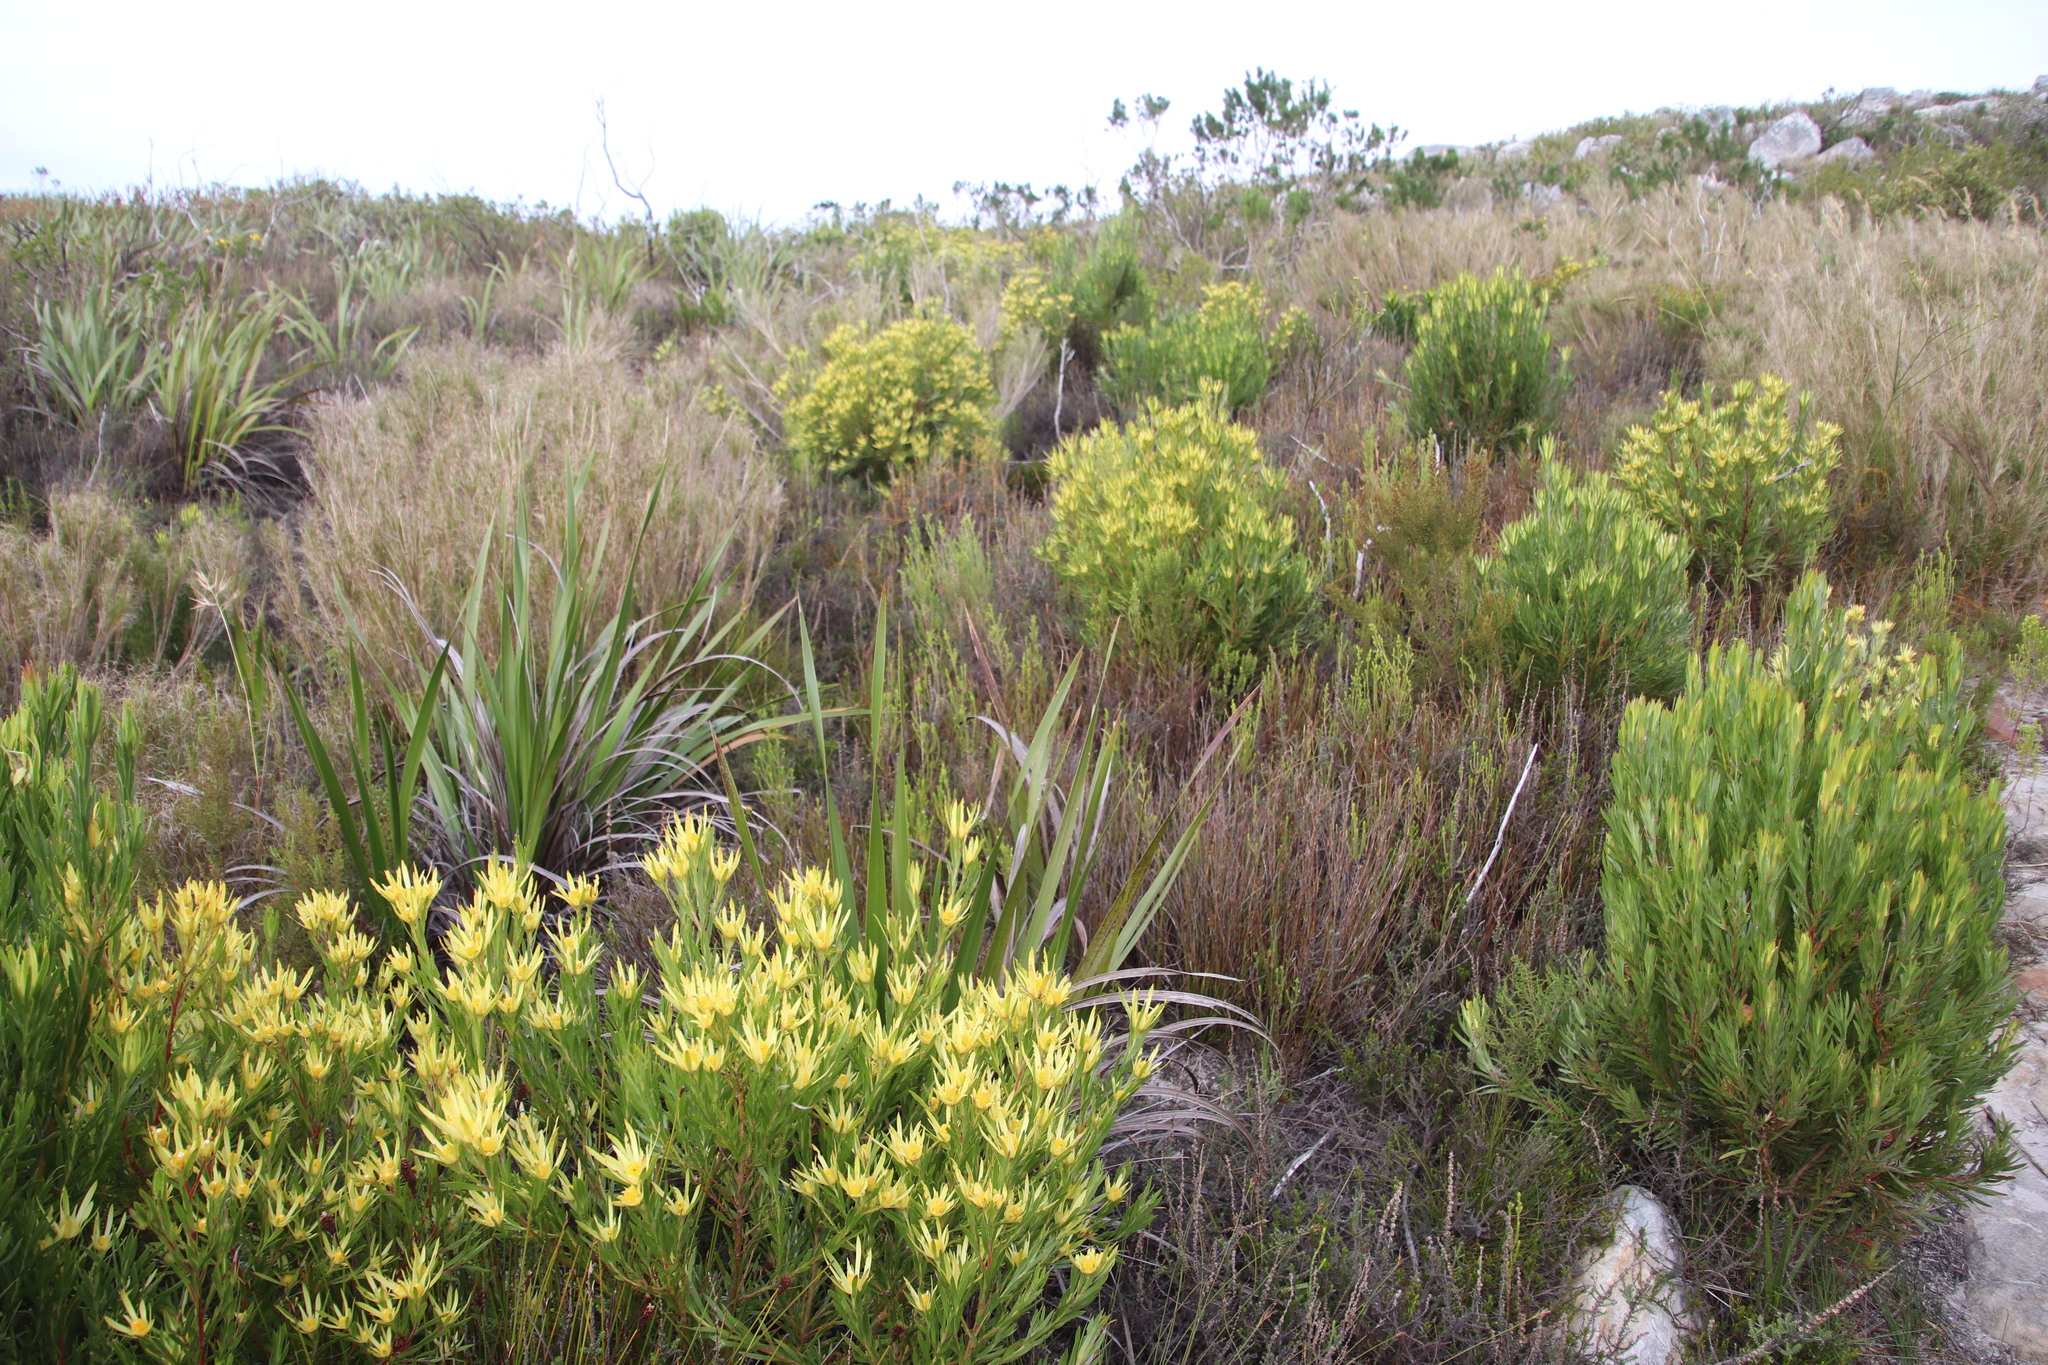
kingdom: Plantae
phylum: Tracheophyta
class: Magnoliopsida
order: Proteales
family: Proteaceae
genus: Leucadendron
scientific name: Leucadendron xanthoconus
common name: Sickle-leaf conebush
